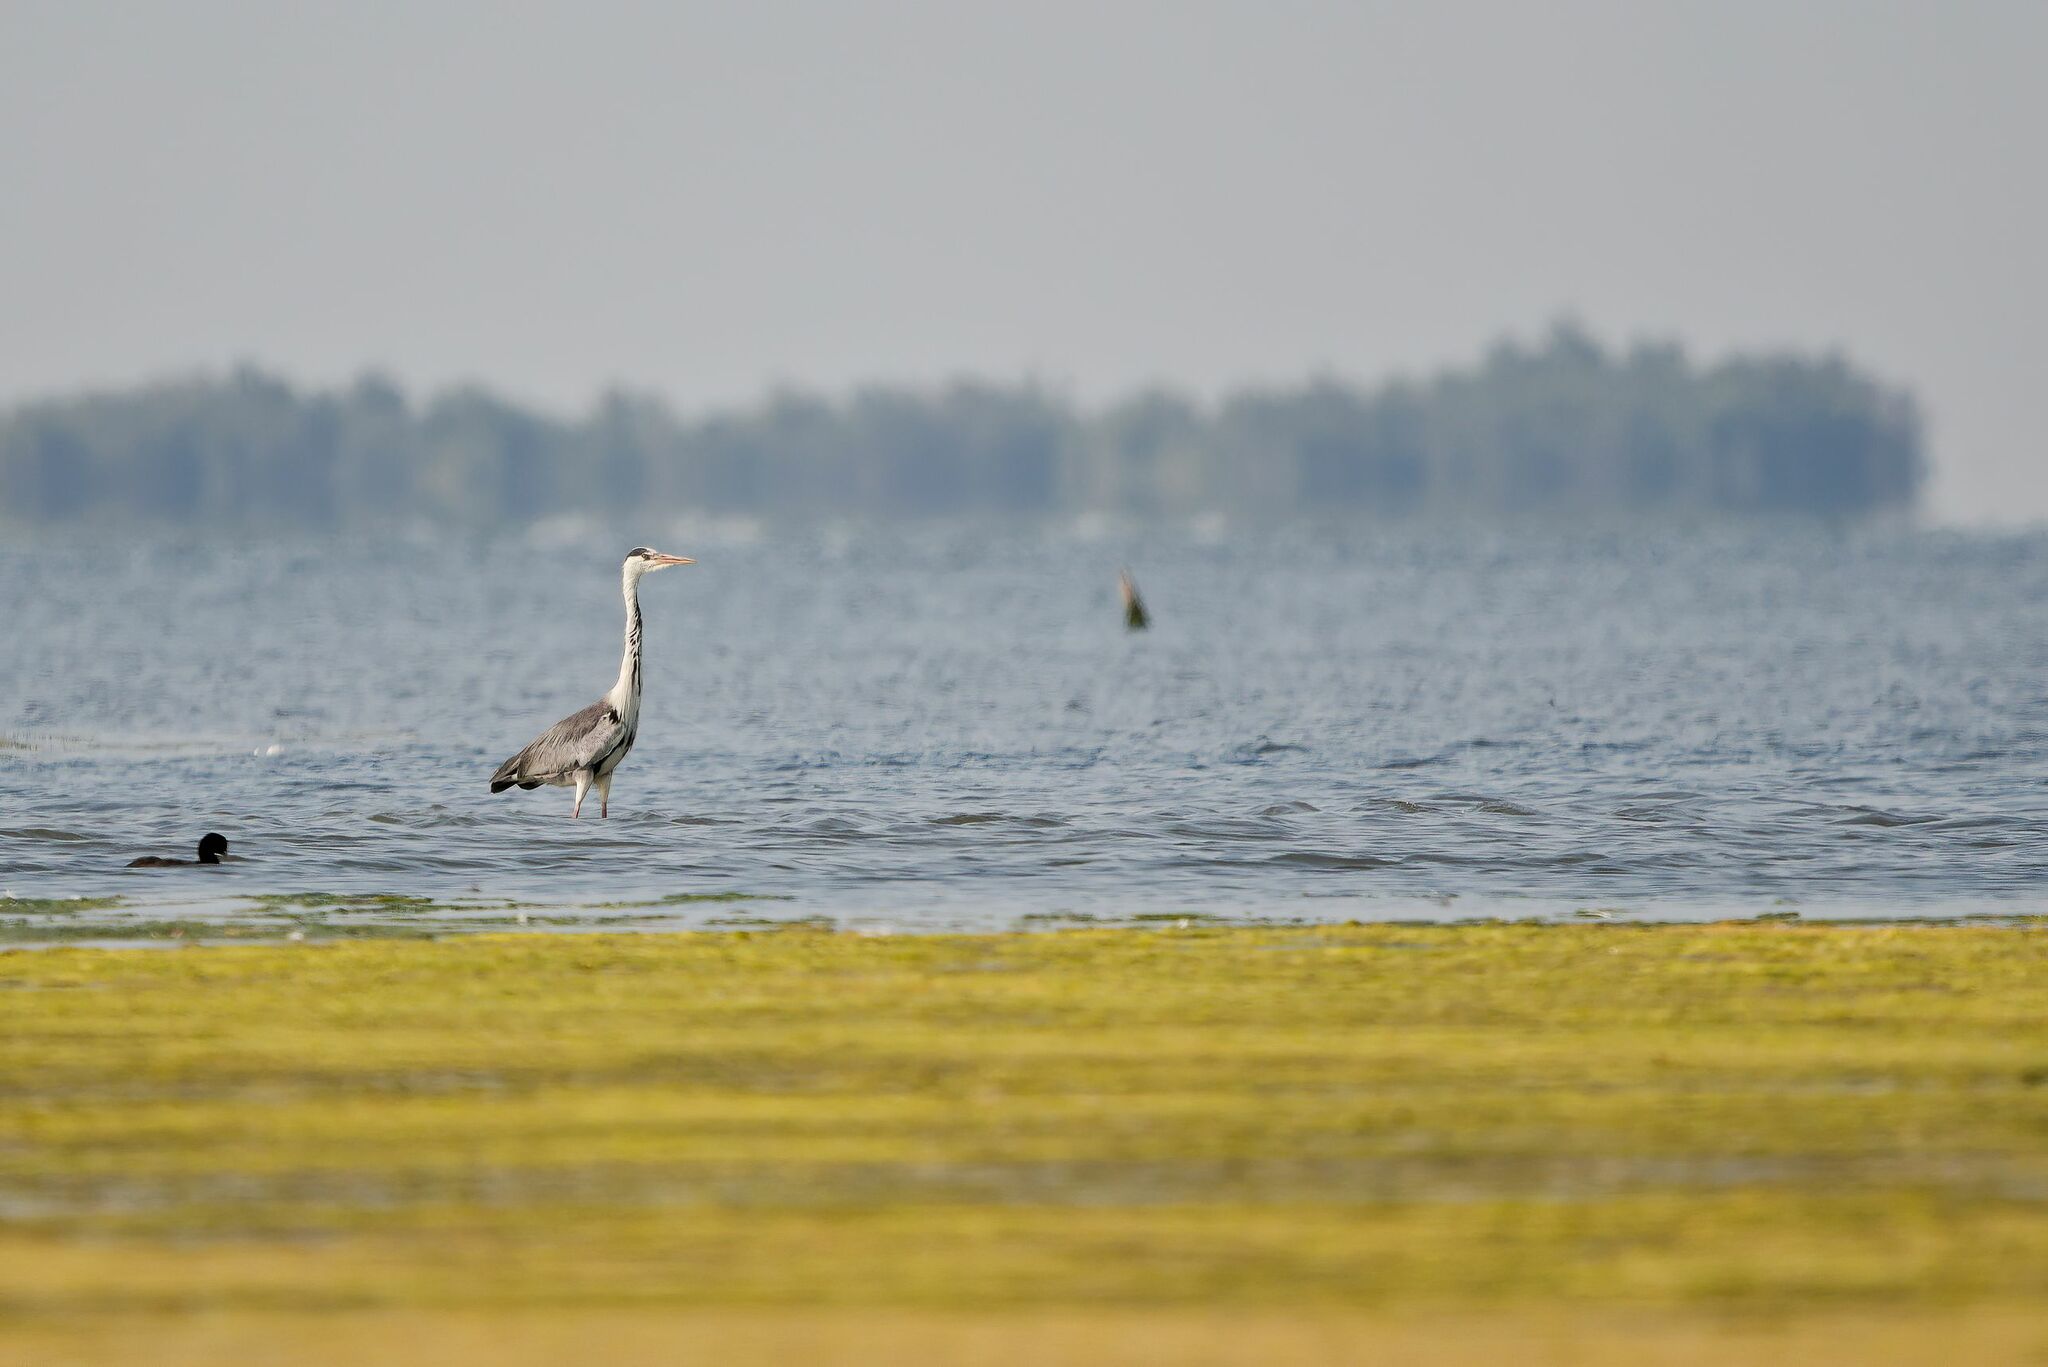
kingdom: Animalia
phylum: Chordata
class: Aves
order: Pelecaniformes
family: Ardeidae
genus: Ardea
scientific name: Ardea cinerea
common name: Grey heron
